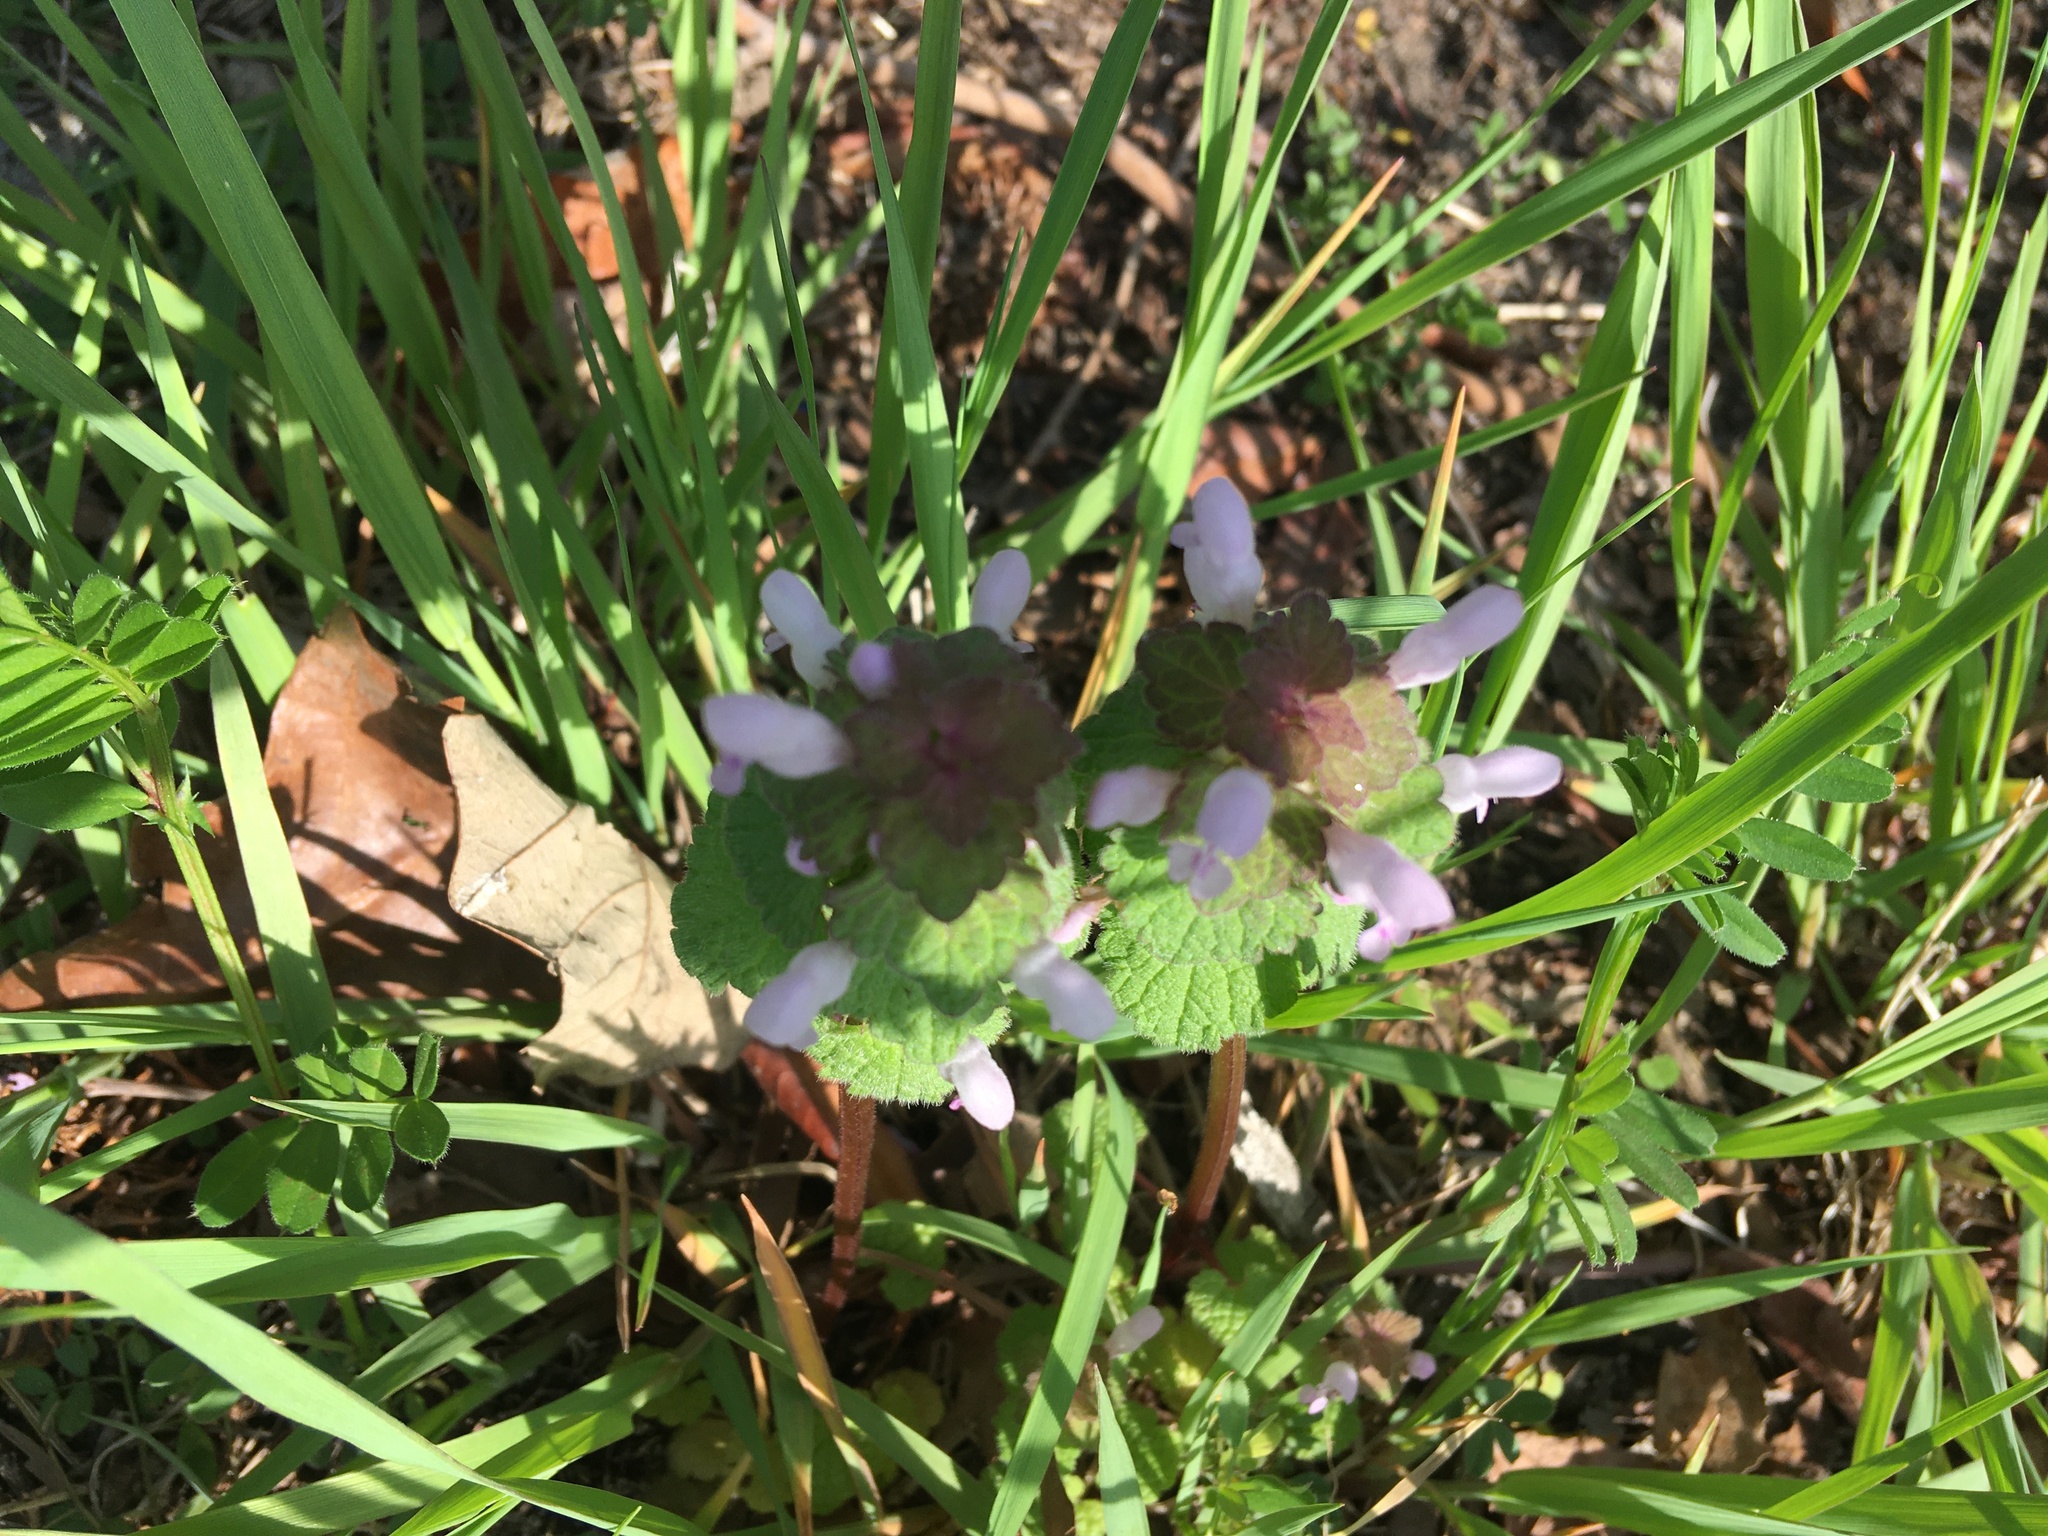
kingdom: Plantae
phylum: Tracheophyta
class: Magnoliopsida
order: Lamiales
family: Lamiaceae
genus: Lamium
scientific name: Lamium purpureum
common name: Red dead-nettle
